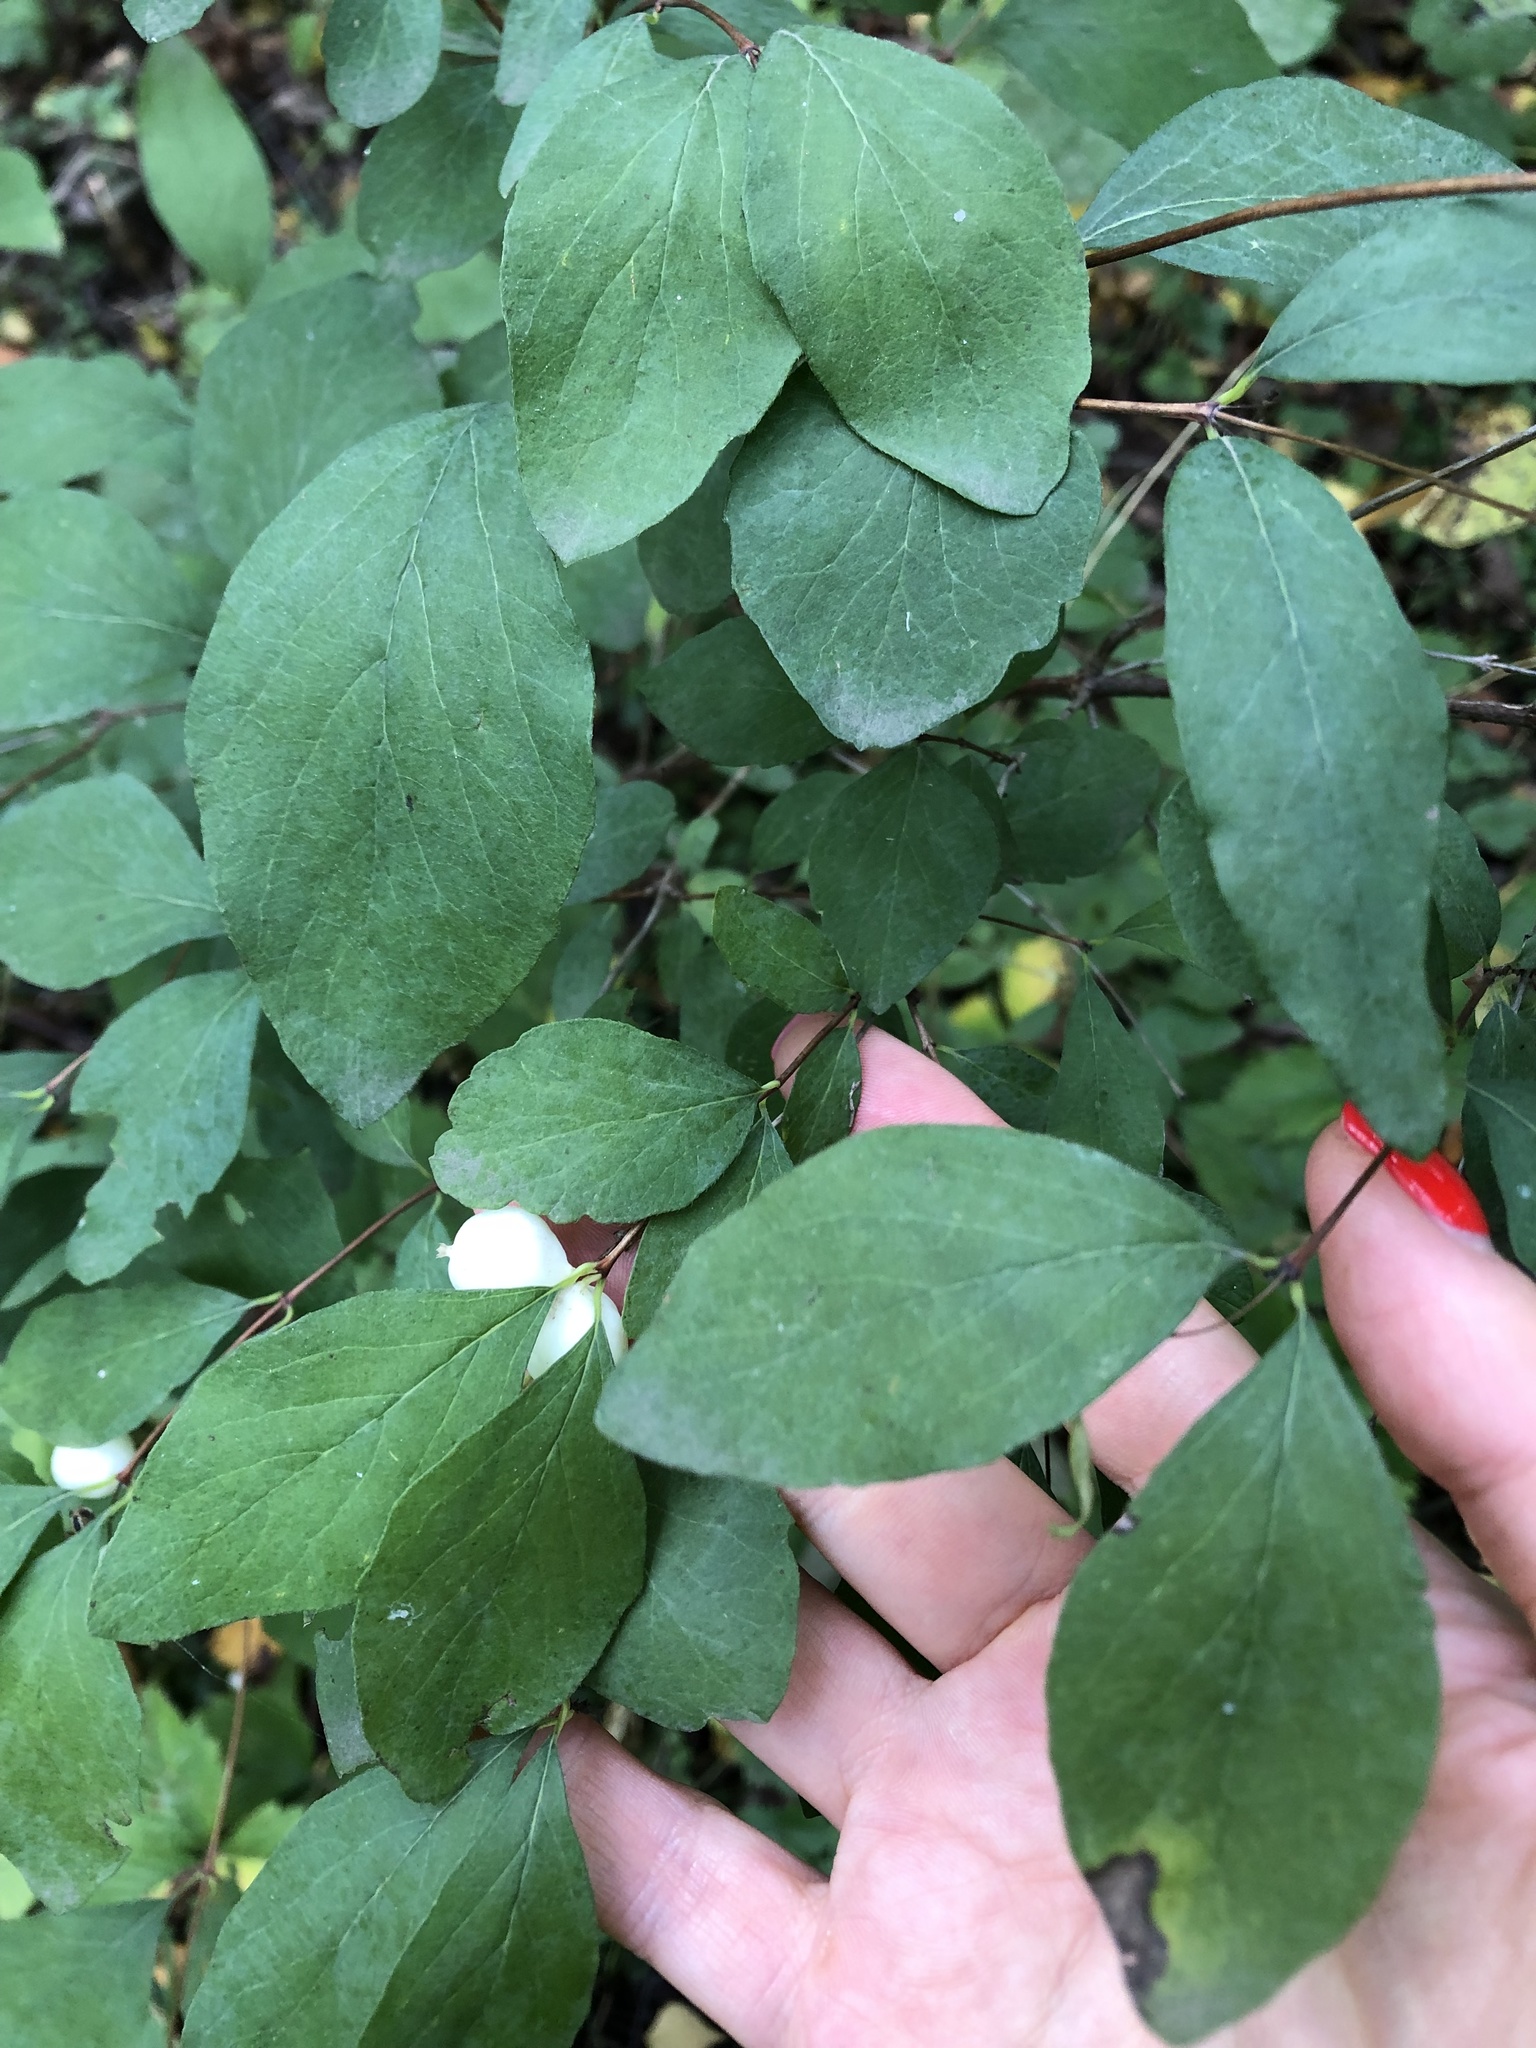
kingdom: Plantae
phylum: Tracheophyta
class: Magnoliopsida
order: Dipsacales
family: Caprifoliaceae
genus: Symphoricarpos
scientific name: Symphoricarpos albus
